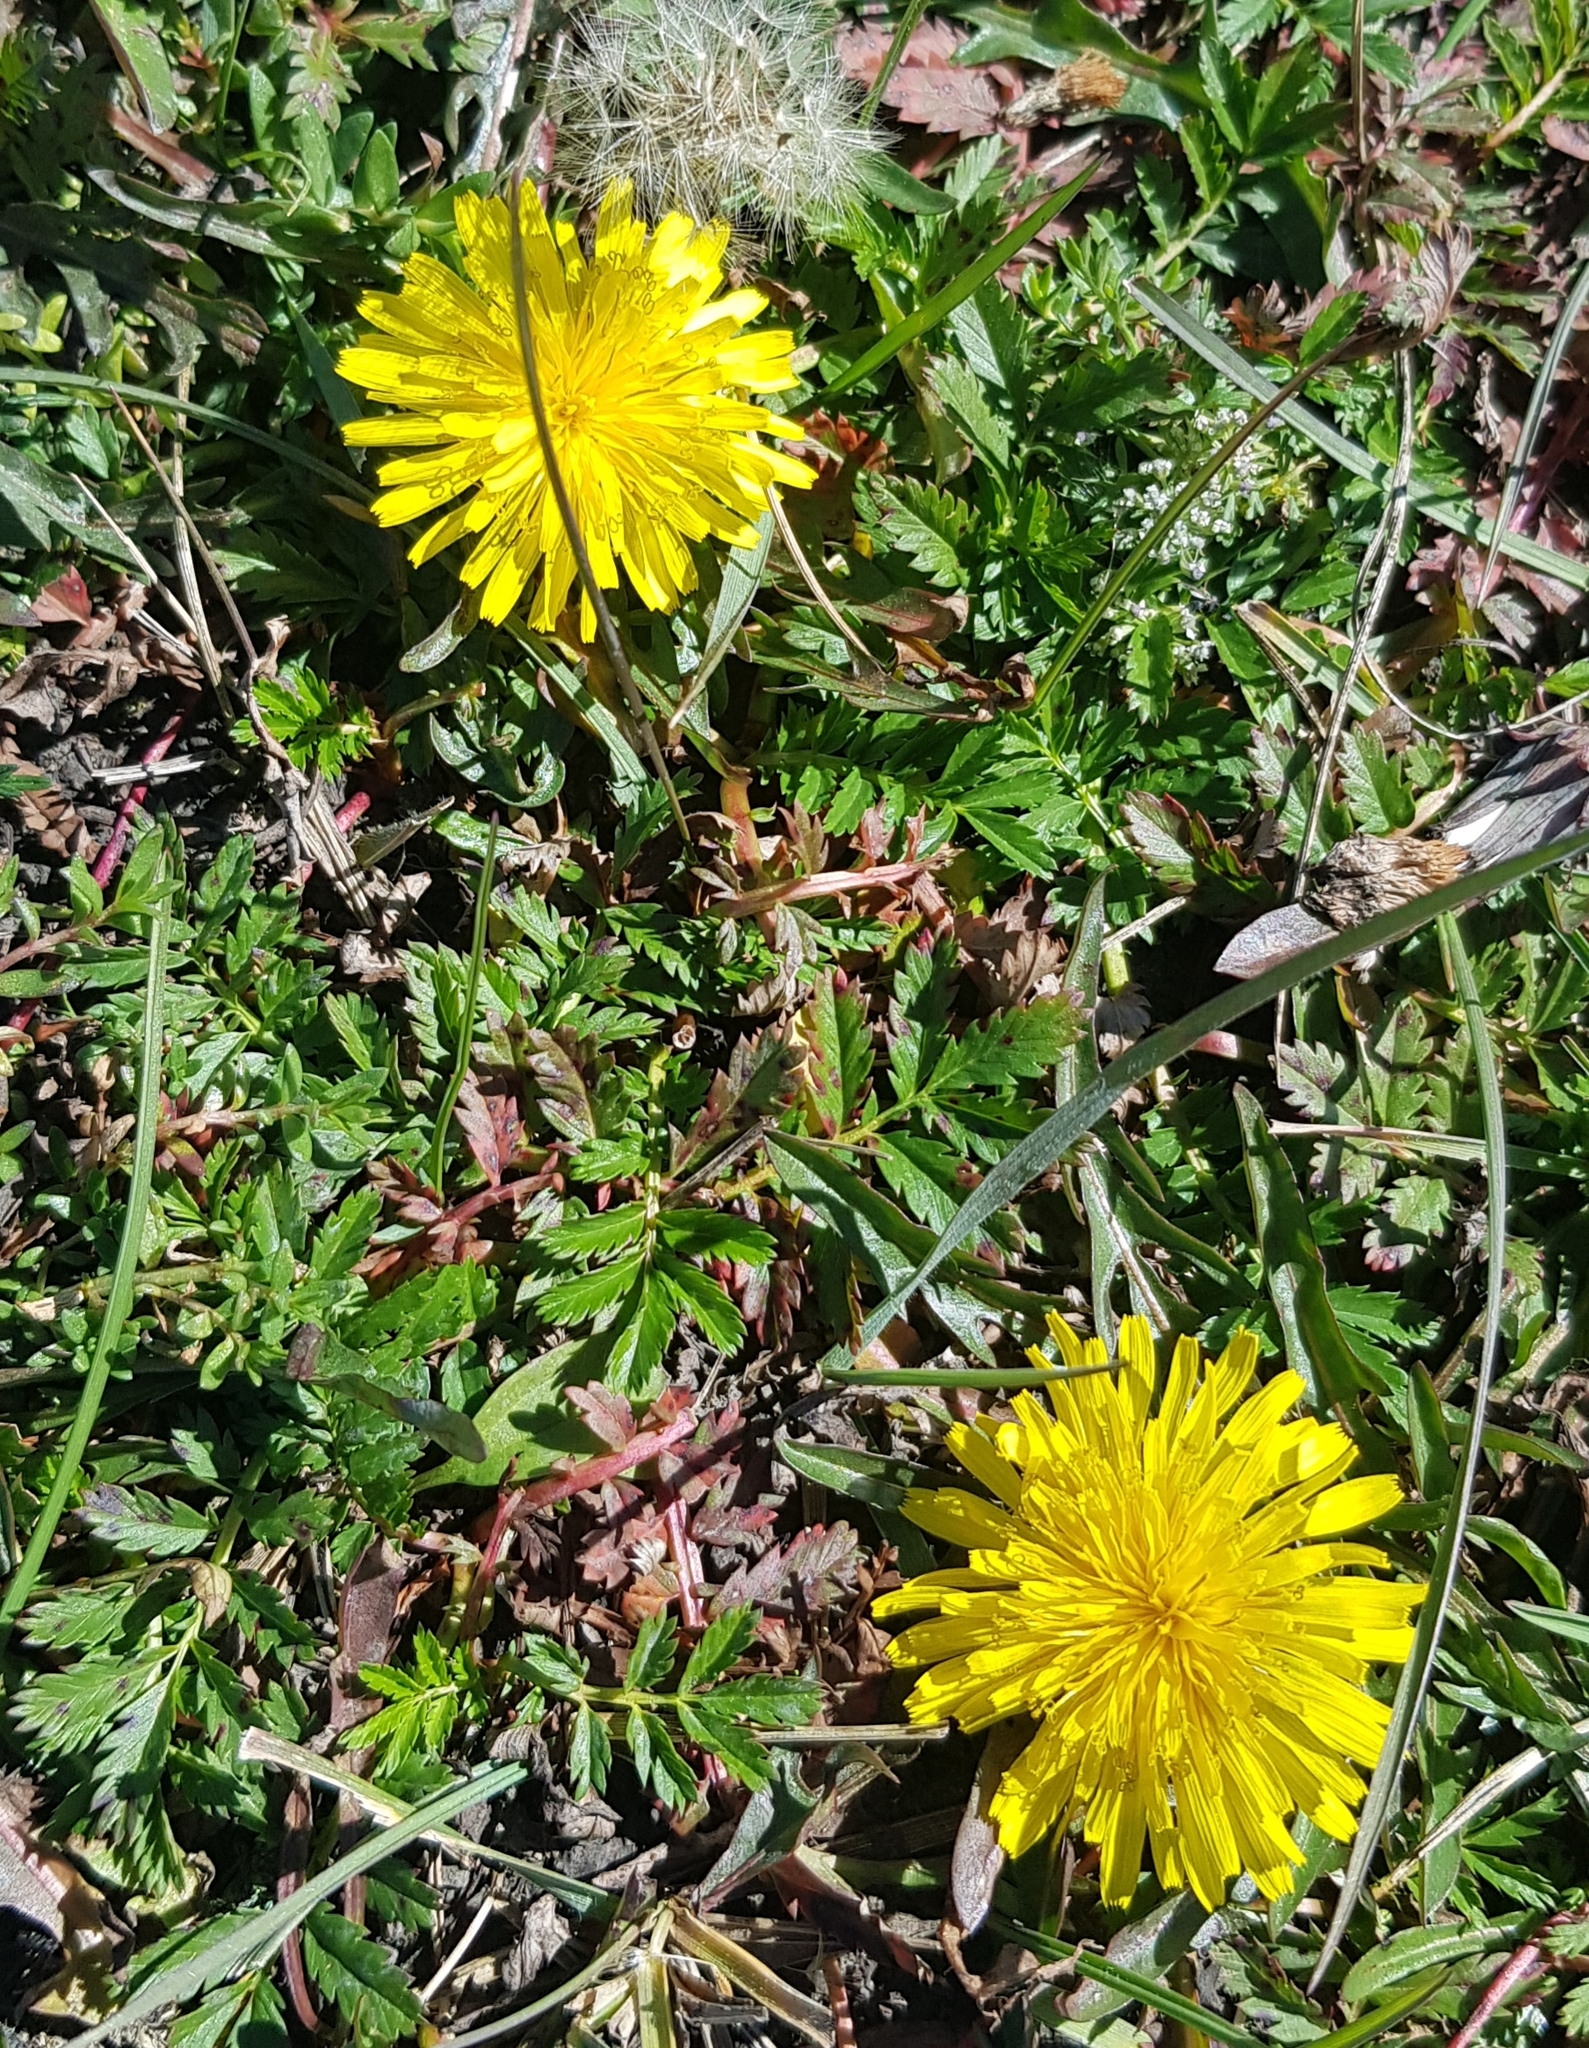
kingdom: Plantae
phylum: Tracheophyta
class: Magnoliopsida
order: Asterales
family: Asteraceae
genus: Taraxacum
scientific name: Taraxacum officinale
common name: Common dandelion
